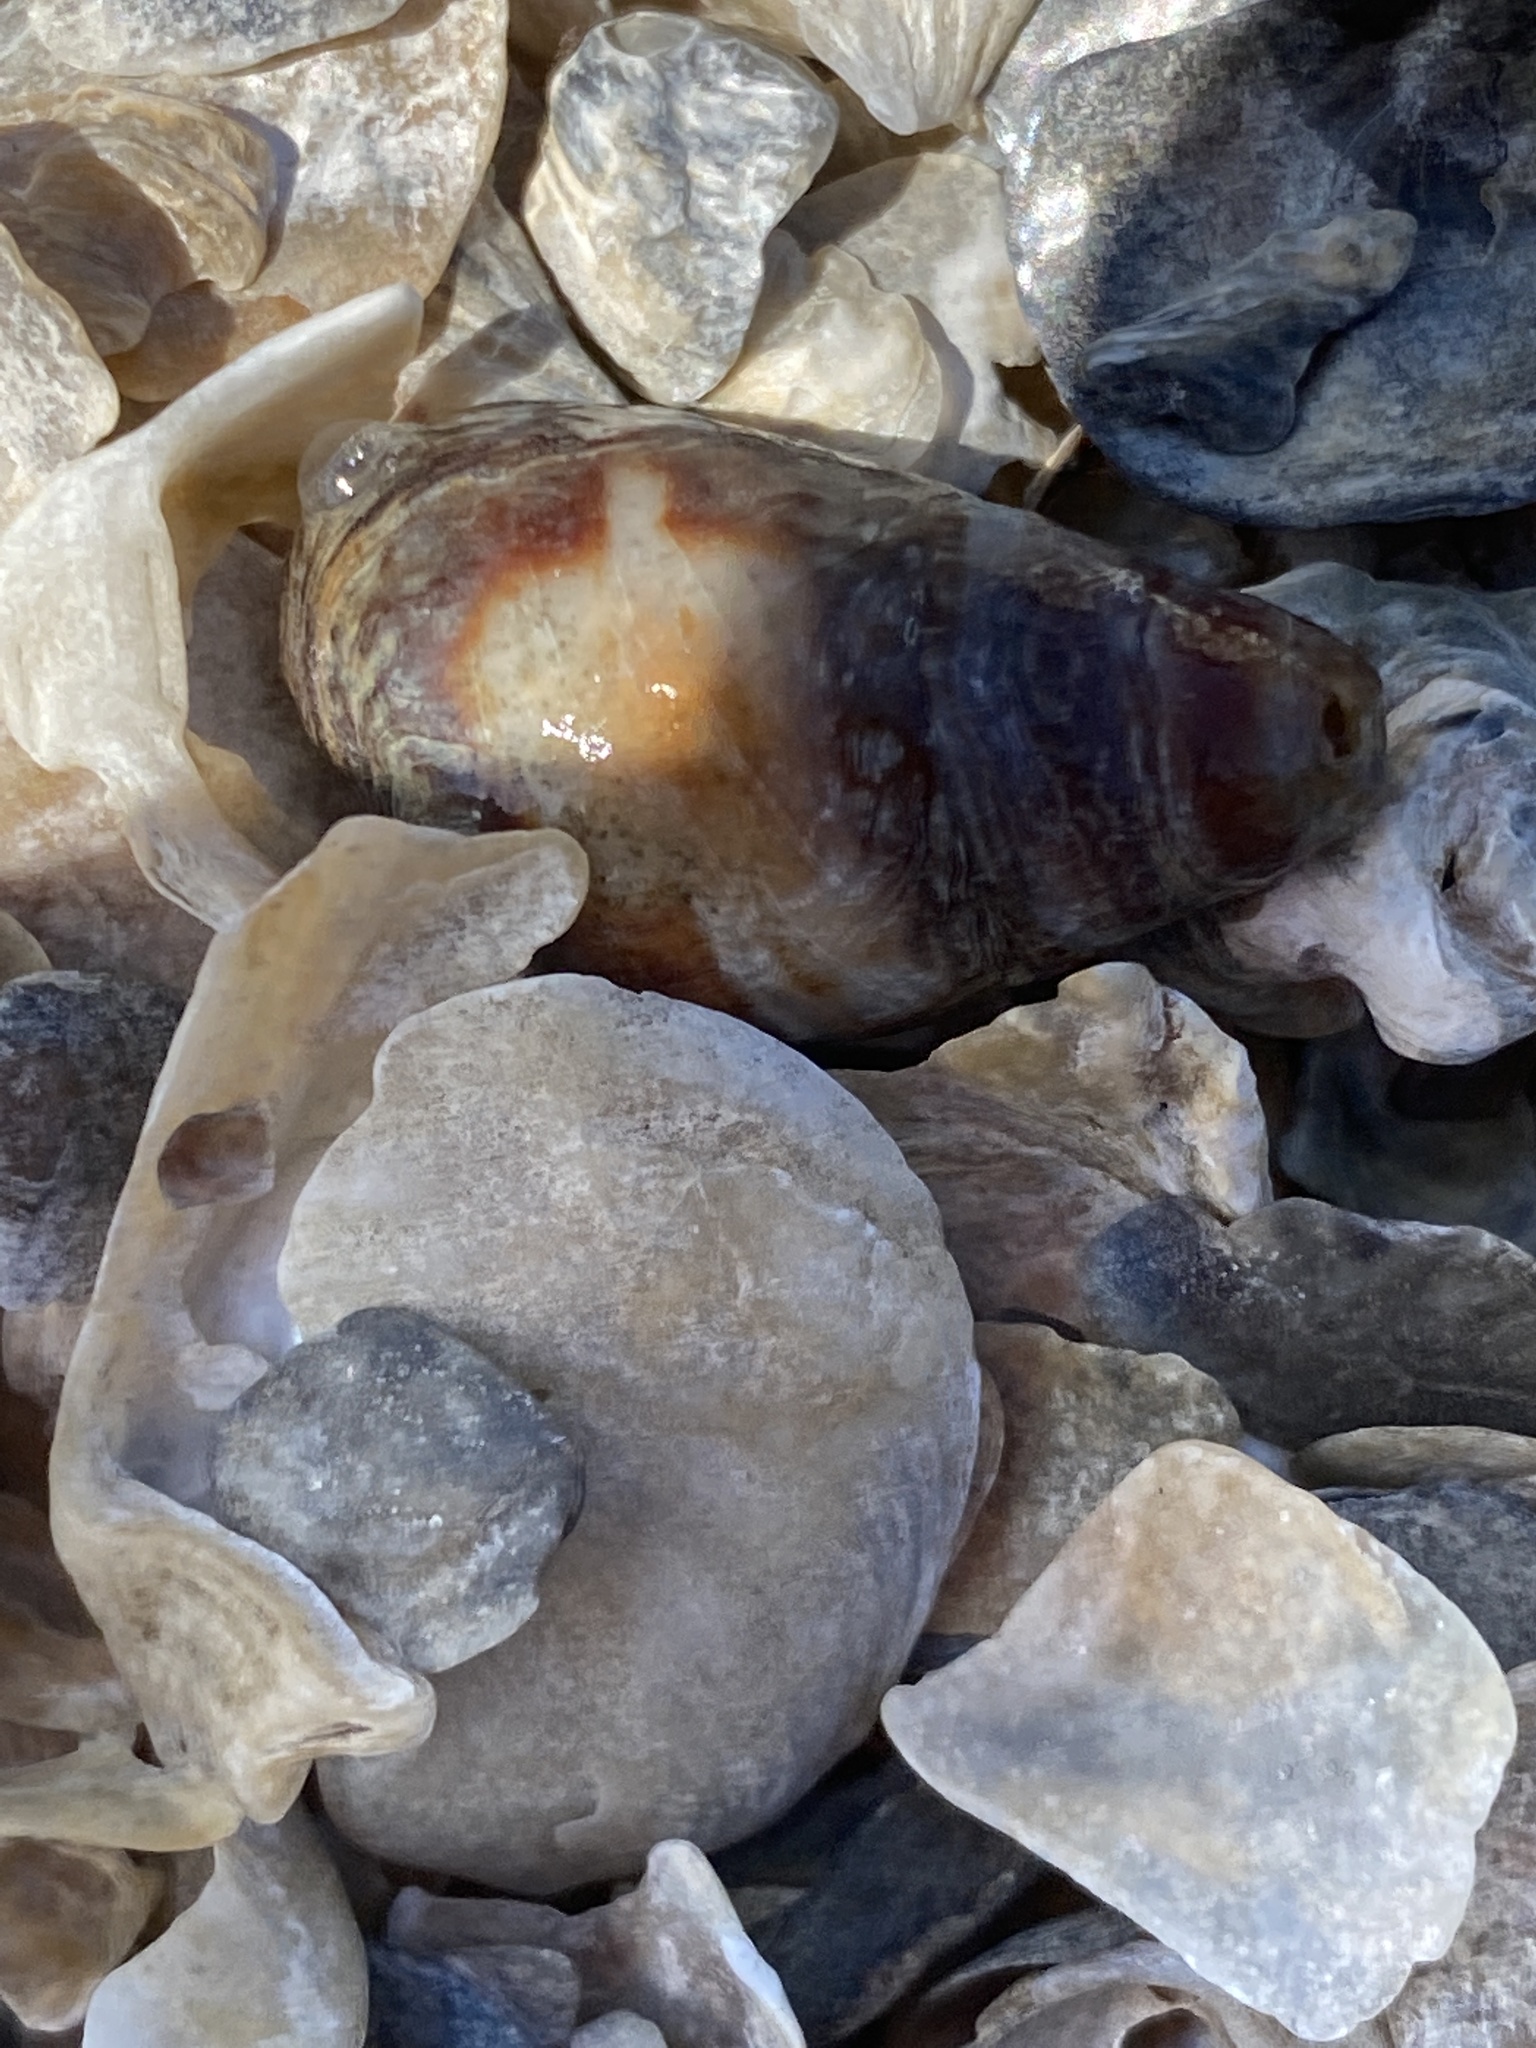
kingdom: Animalia
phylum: Mollusca
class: Gastropoda
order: Neogastropoda
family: Nassariidae
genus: Ilyanassa
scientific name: Ilyanassa obsoleta
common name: Eastern mudsnail
